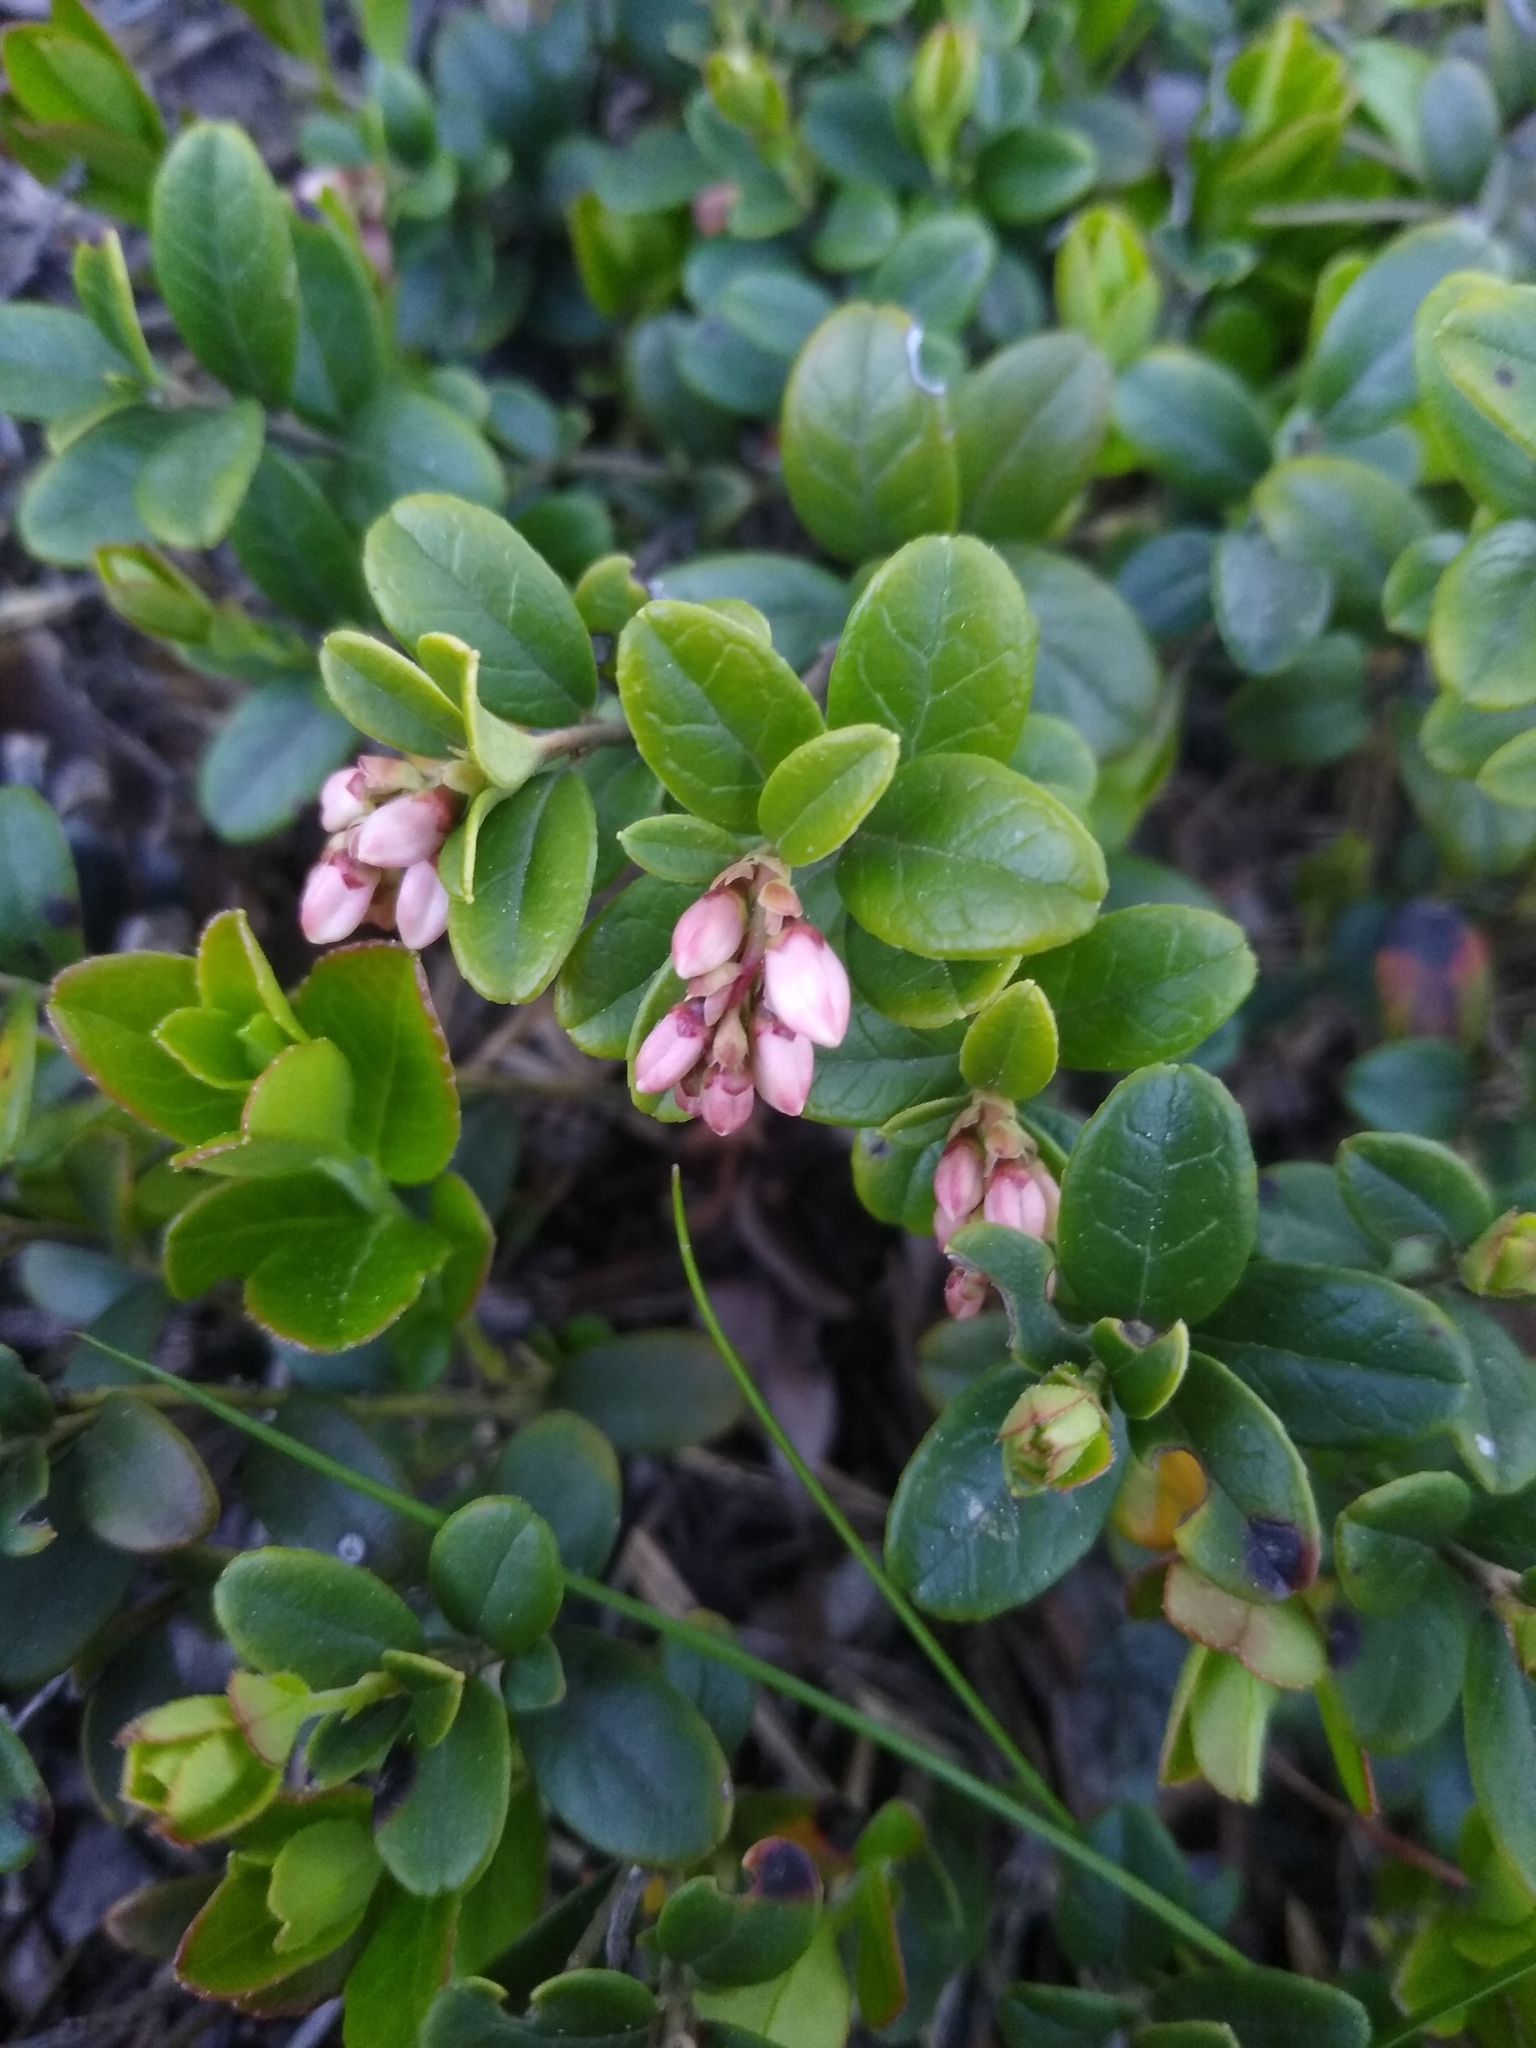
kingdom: Plantae
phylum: Tracheophyta
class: Magnoliopsida
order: Ericales
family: Ericaceae
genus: Vaccinium
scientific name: Vaccinium vitis-idaea
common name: Cowberry
